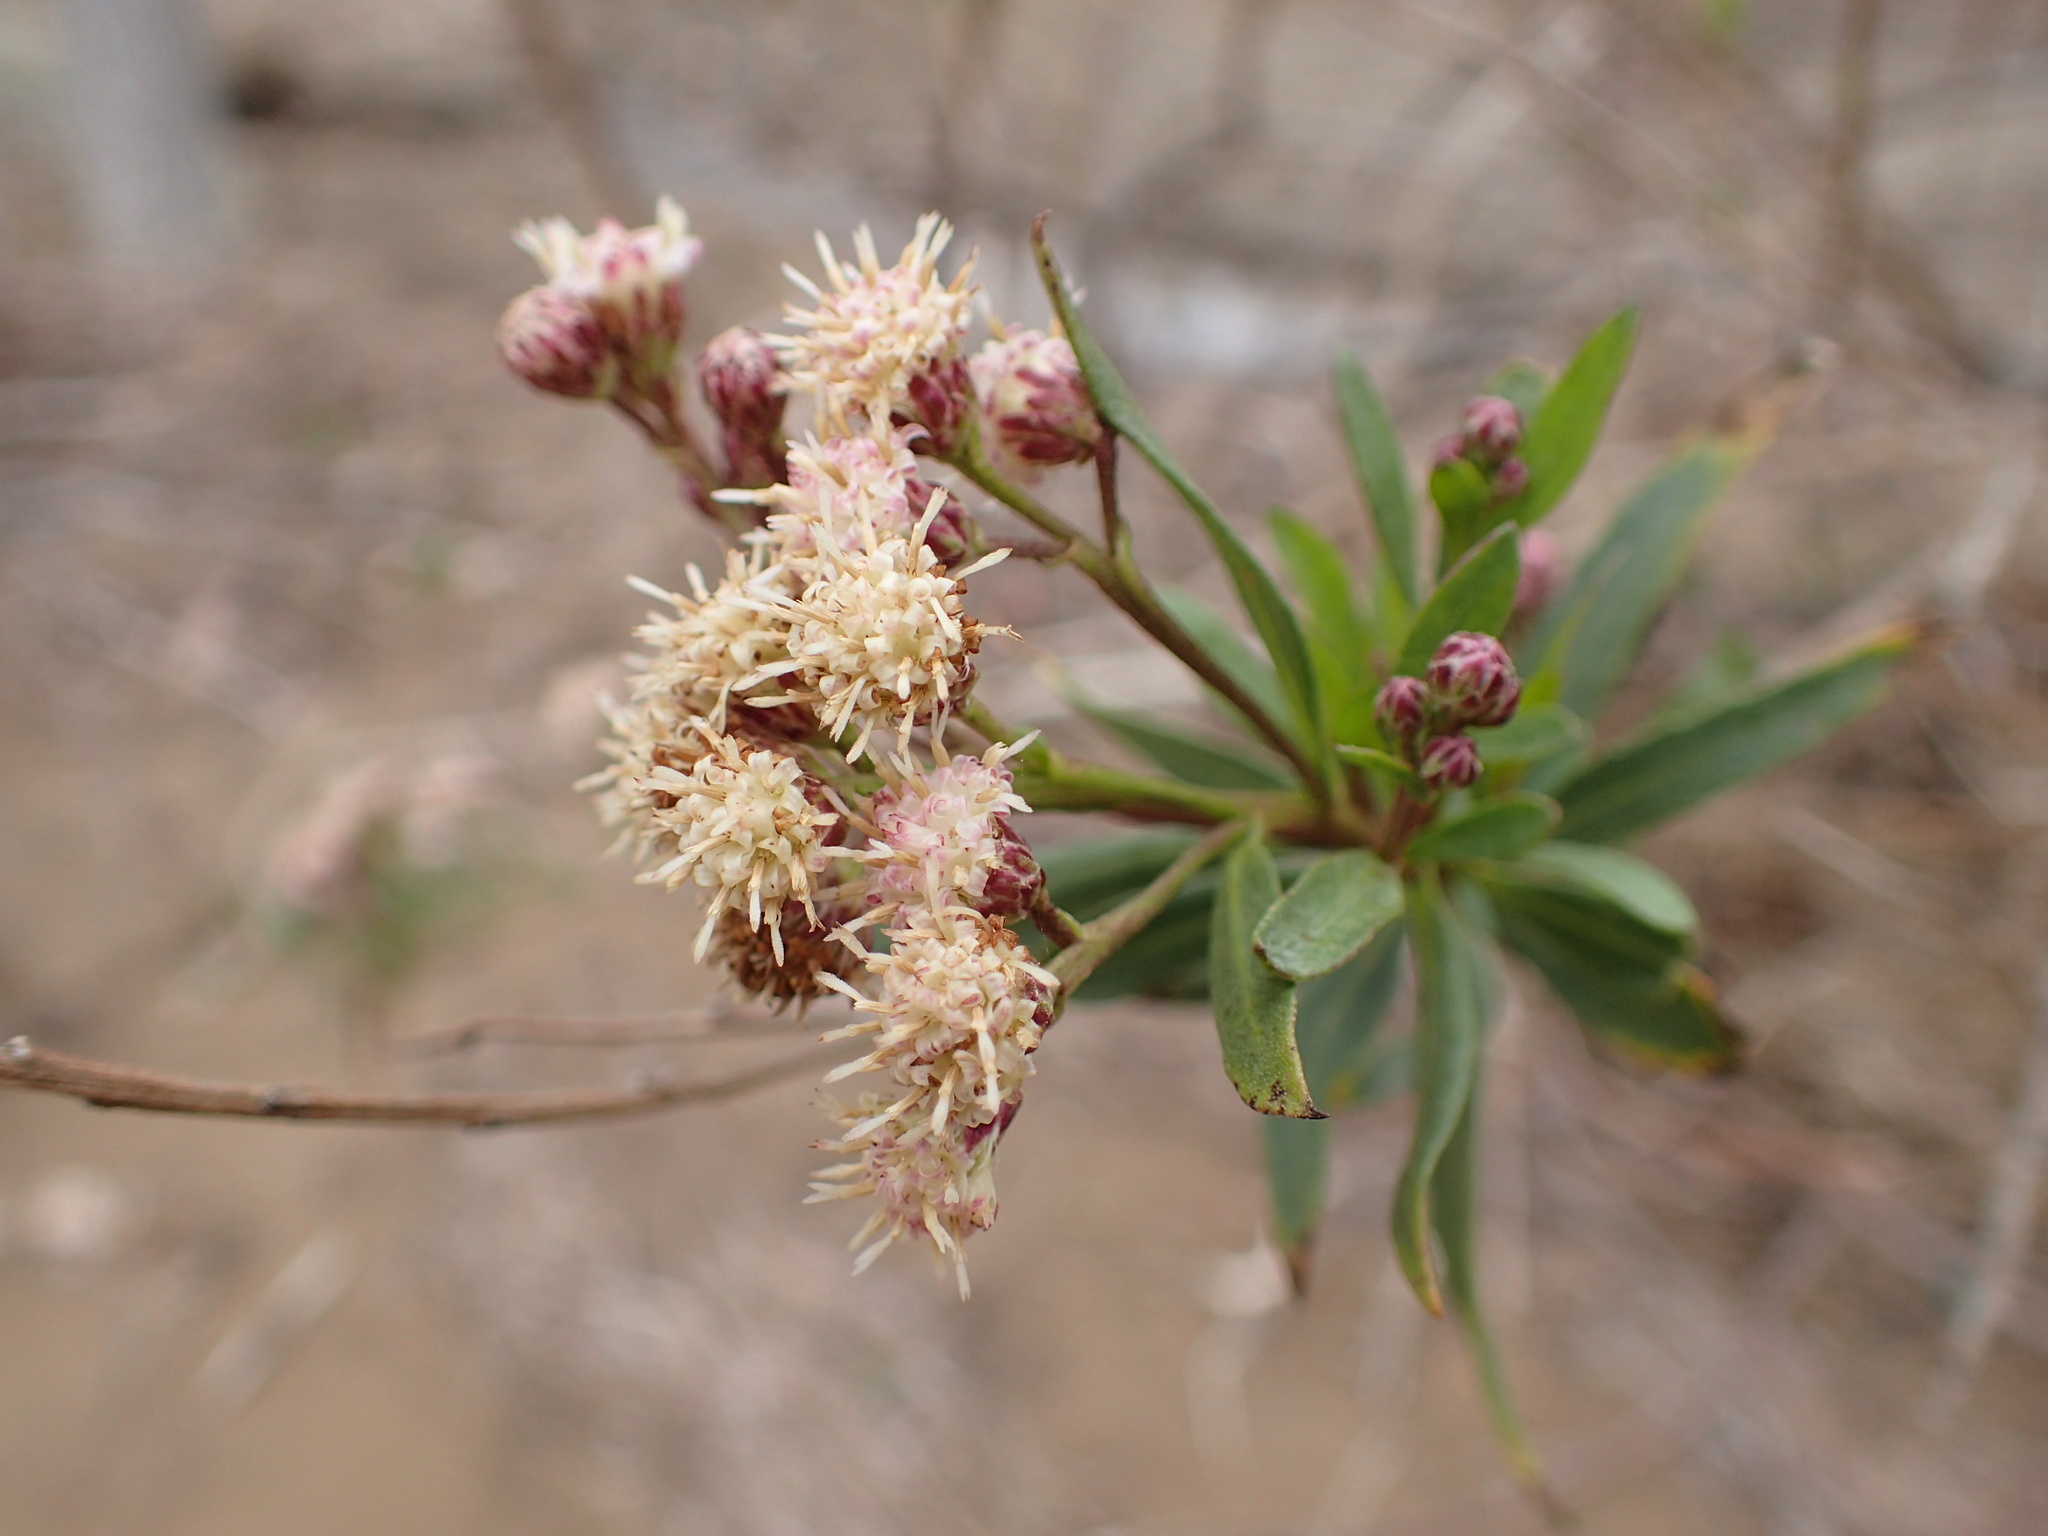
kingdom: Plantae
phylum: Tracheophyta
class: Magnoliopsida
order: Asterales
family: Asteraceae
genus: Baccharis
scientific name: Baccharis salicifolia
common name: Sticky baccharis
